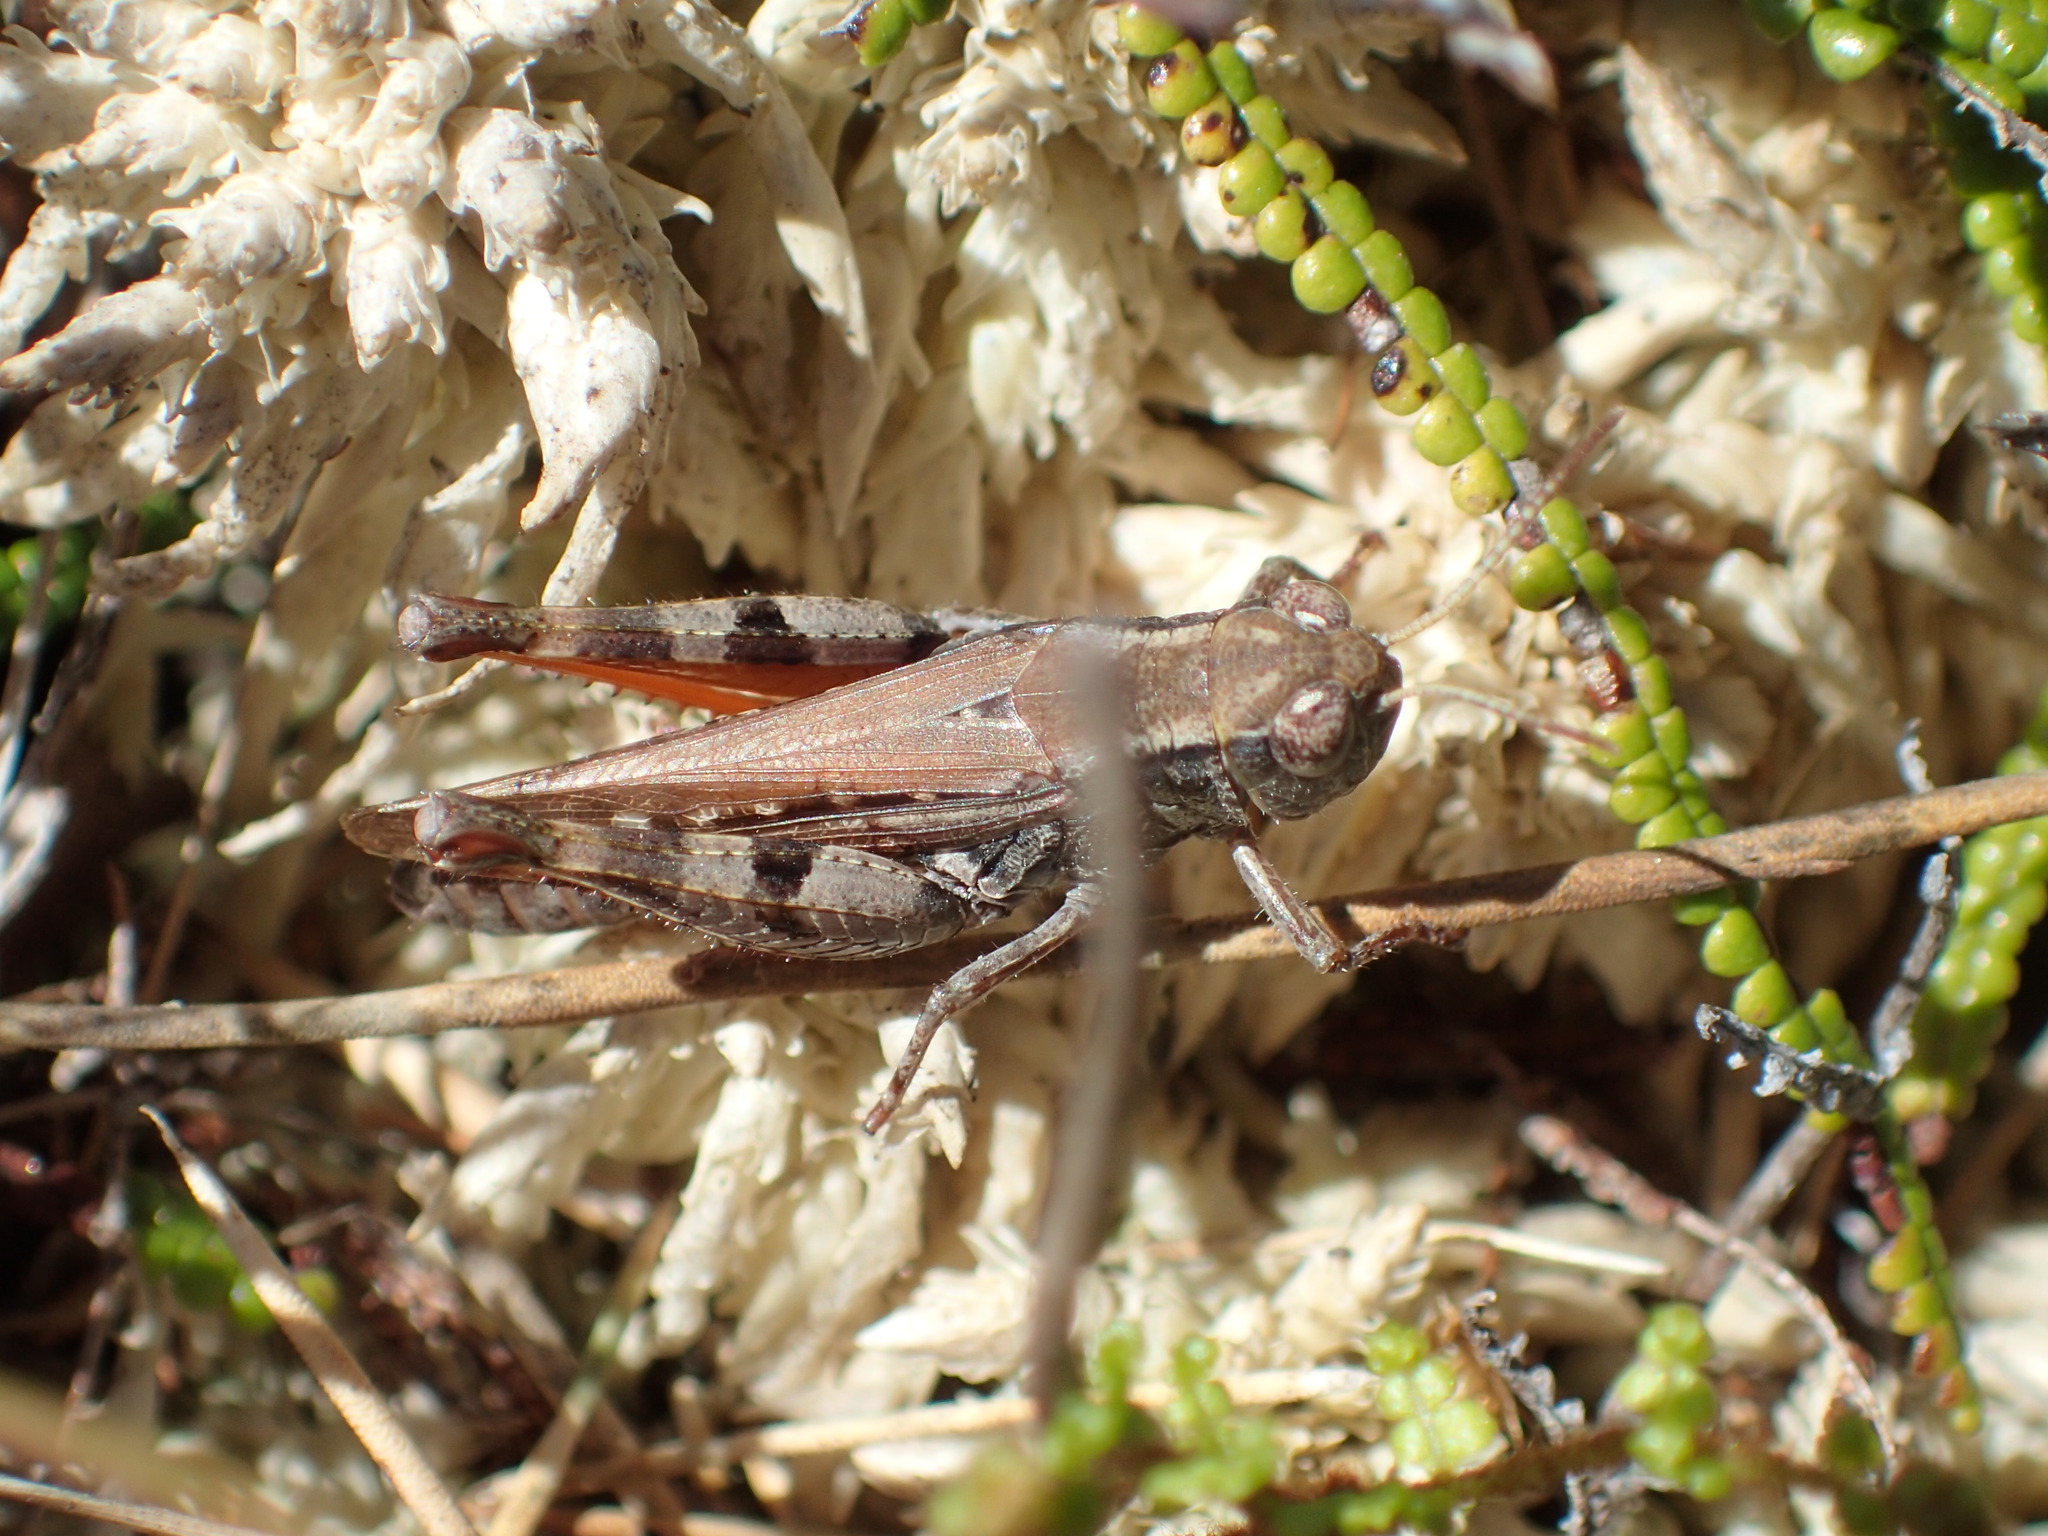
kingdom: Animalia
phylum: Arthropoda
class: Insecta
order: Orthoptera
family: Acrididae
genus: Exarna
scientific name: Exarna includens
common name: Red-legged exarna
